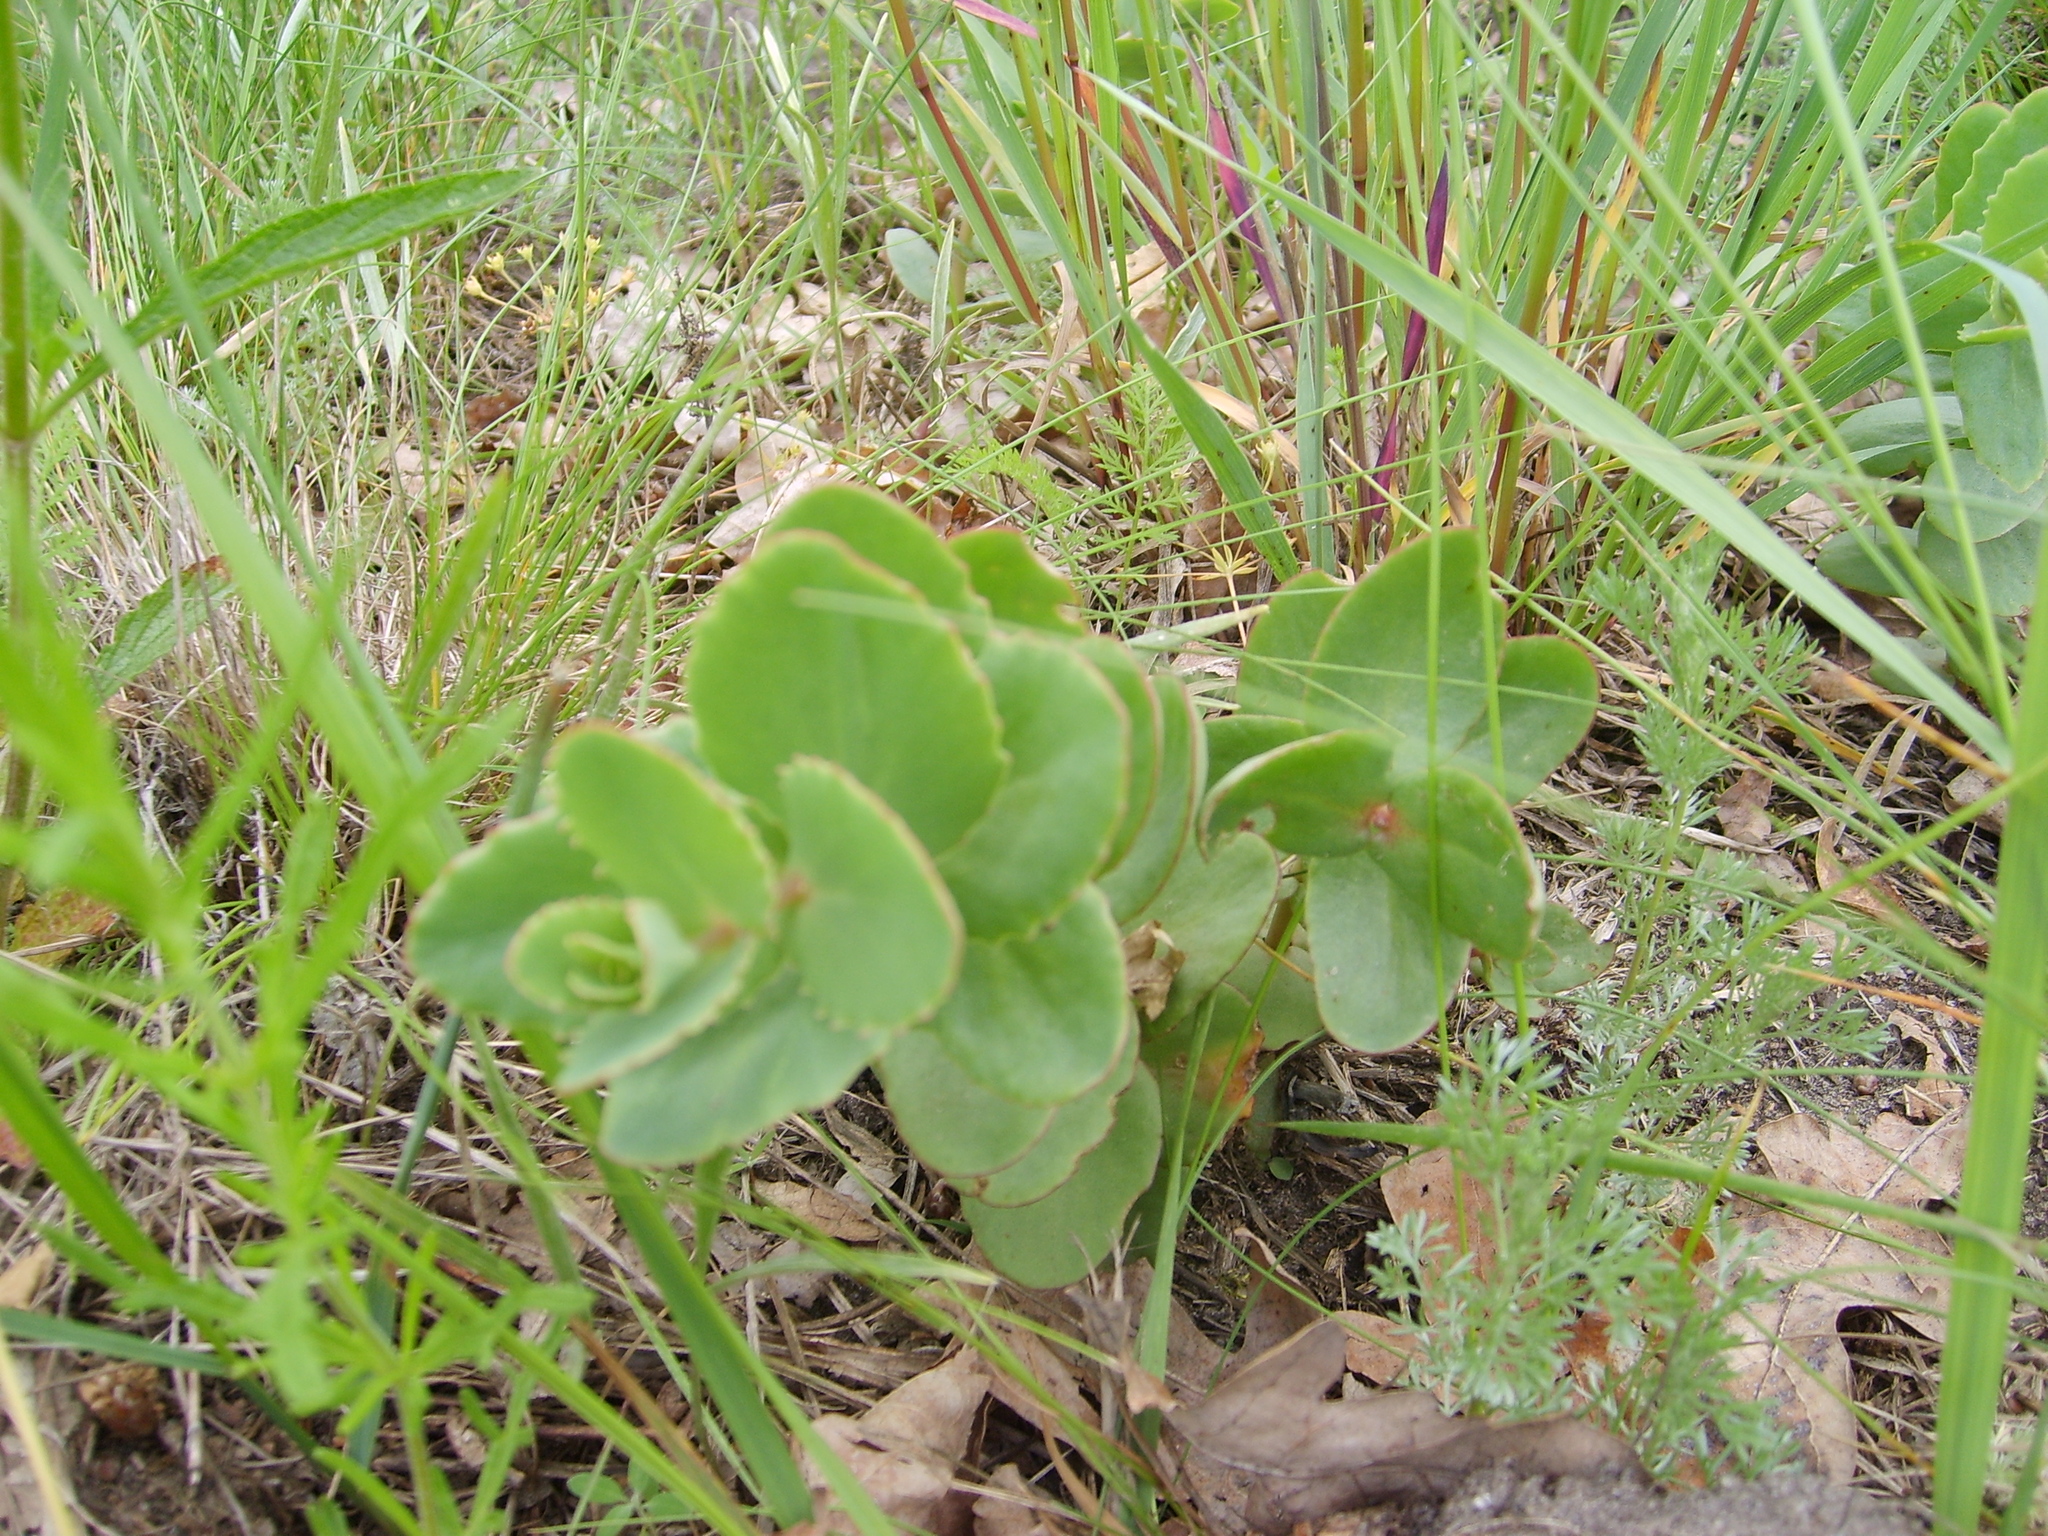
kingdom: Plantae
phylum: Tracheophyta
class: Magnoliopsida
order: Saxifragales
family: Crassulaceae
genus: Hylotelephium
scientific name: Hylotelephium maximum
